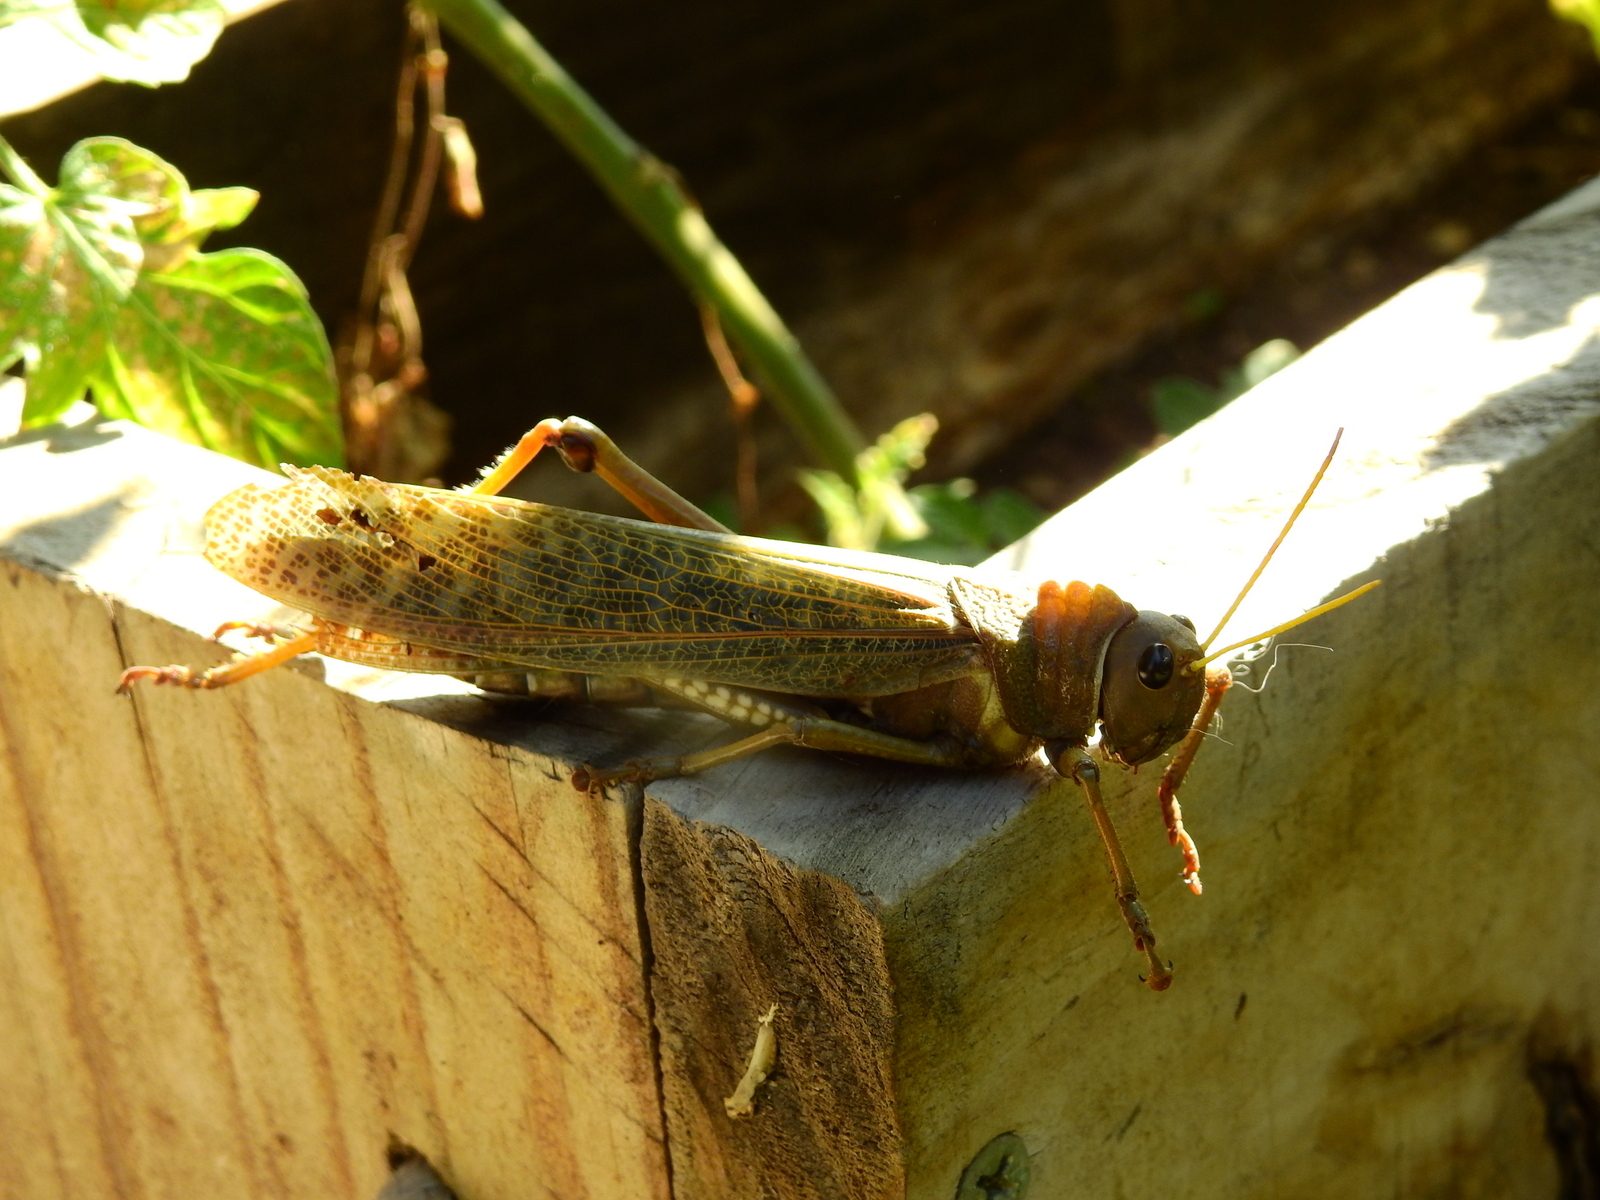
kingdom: Animalia
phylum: Arthropoda
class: Insecta
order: Orthoptera
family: Romaleidae
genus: Tropidacris
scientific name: Tropidacris collaris
